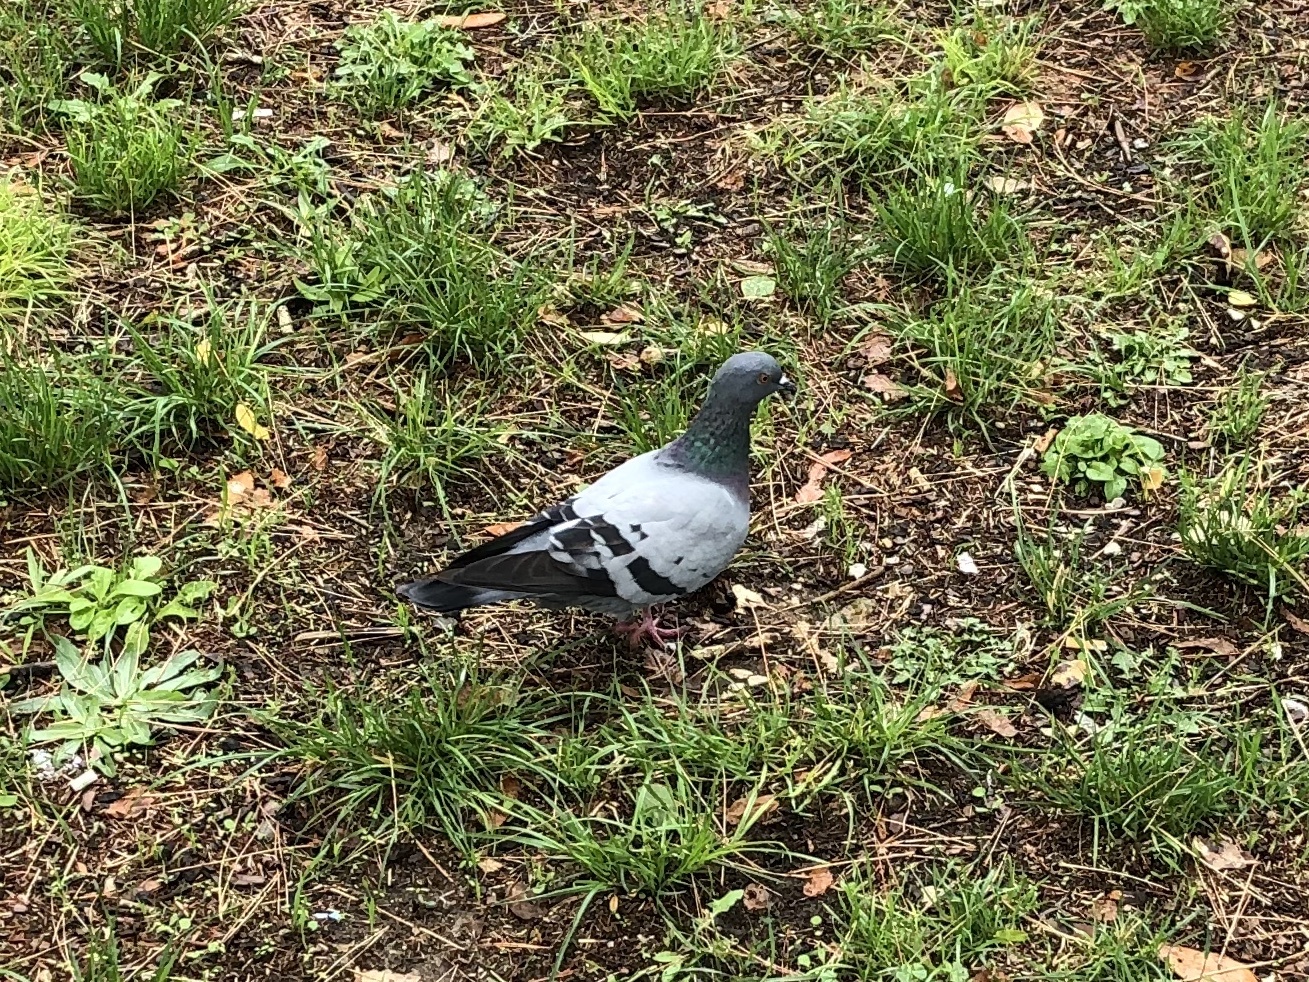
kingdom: Animalia
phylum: Chordata
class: Aves
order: Columbiformes
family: Columbidae
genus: Columba
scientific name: Columba livia
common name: Rock pigeon
